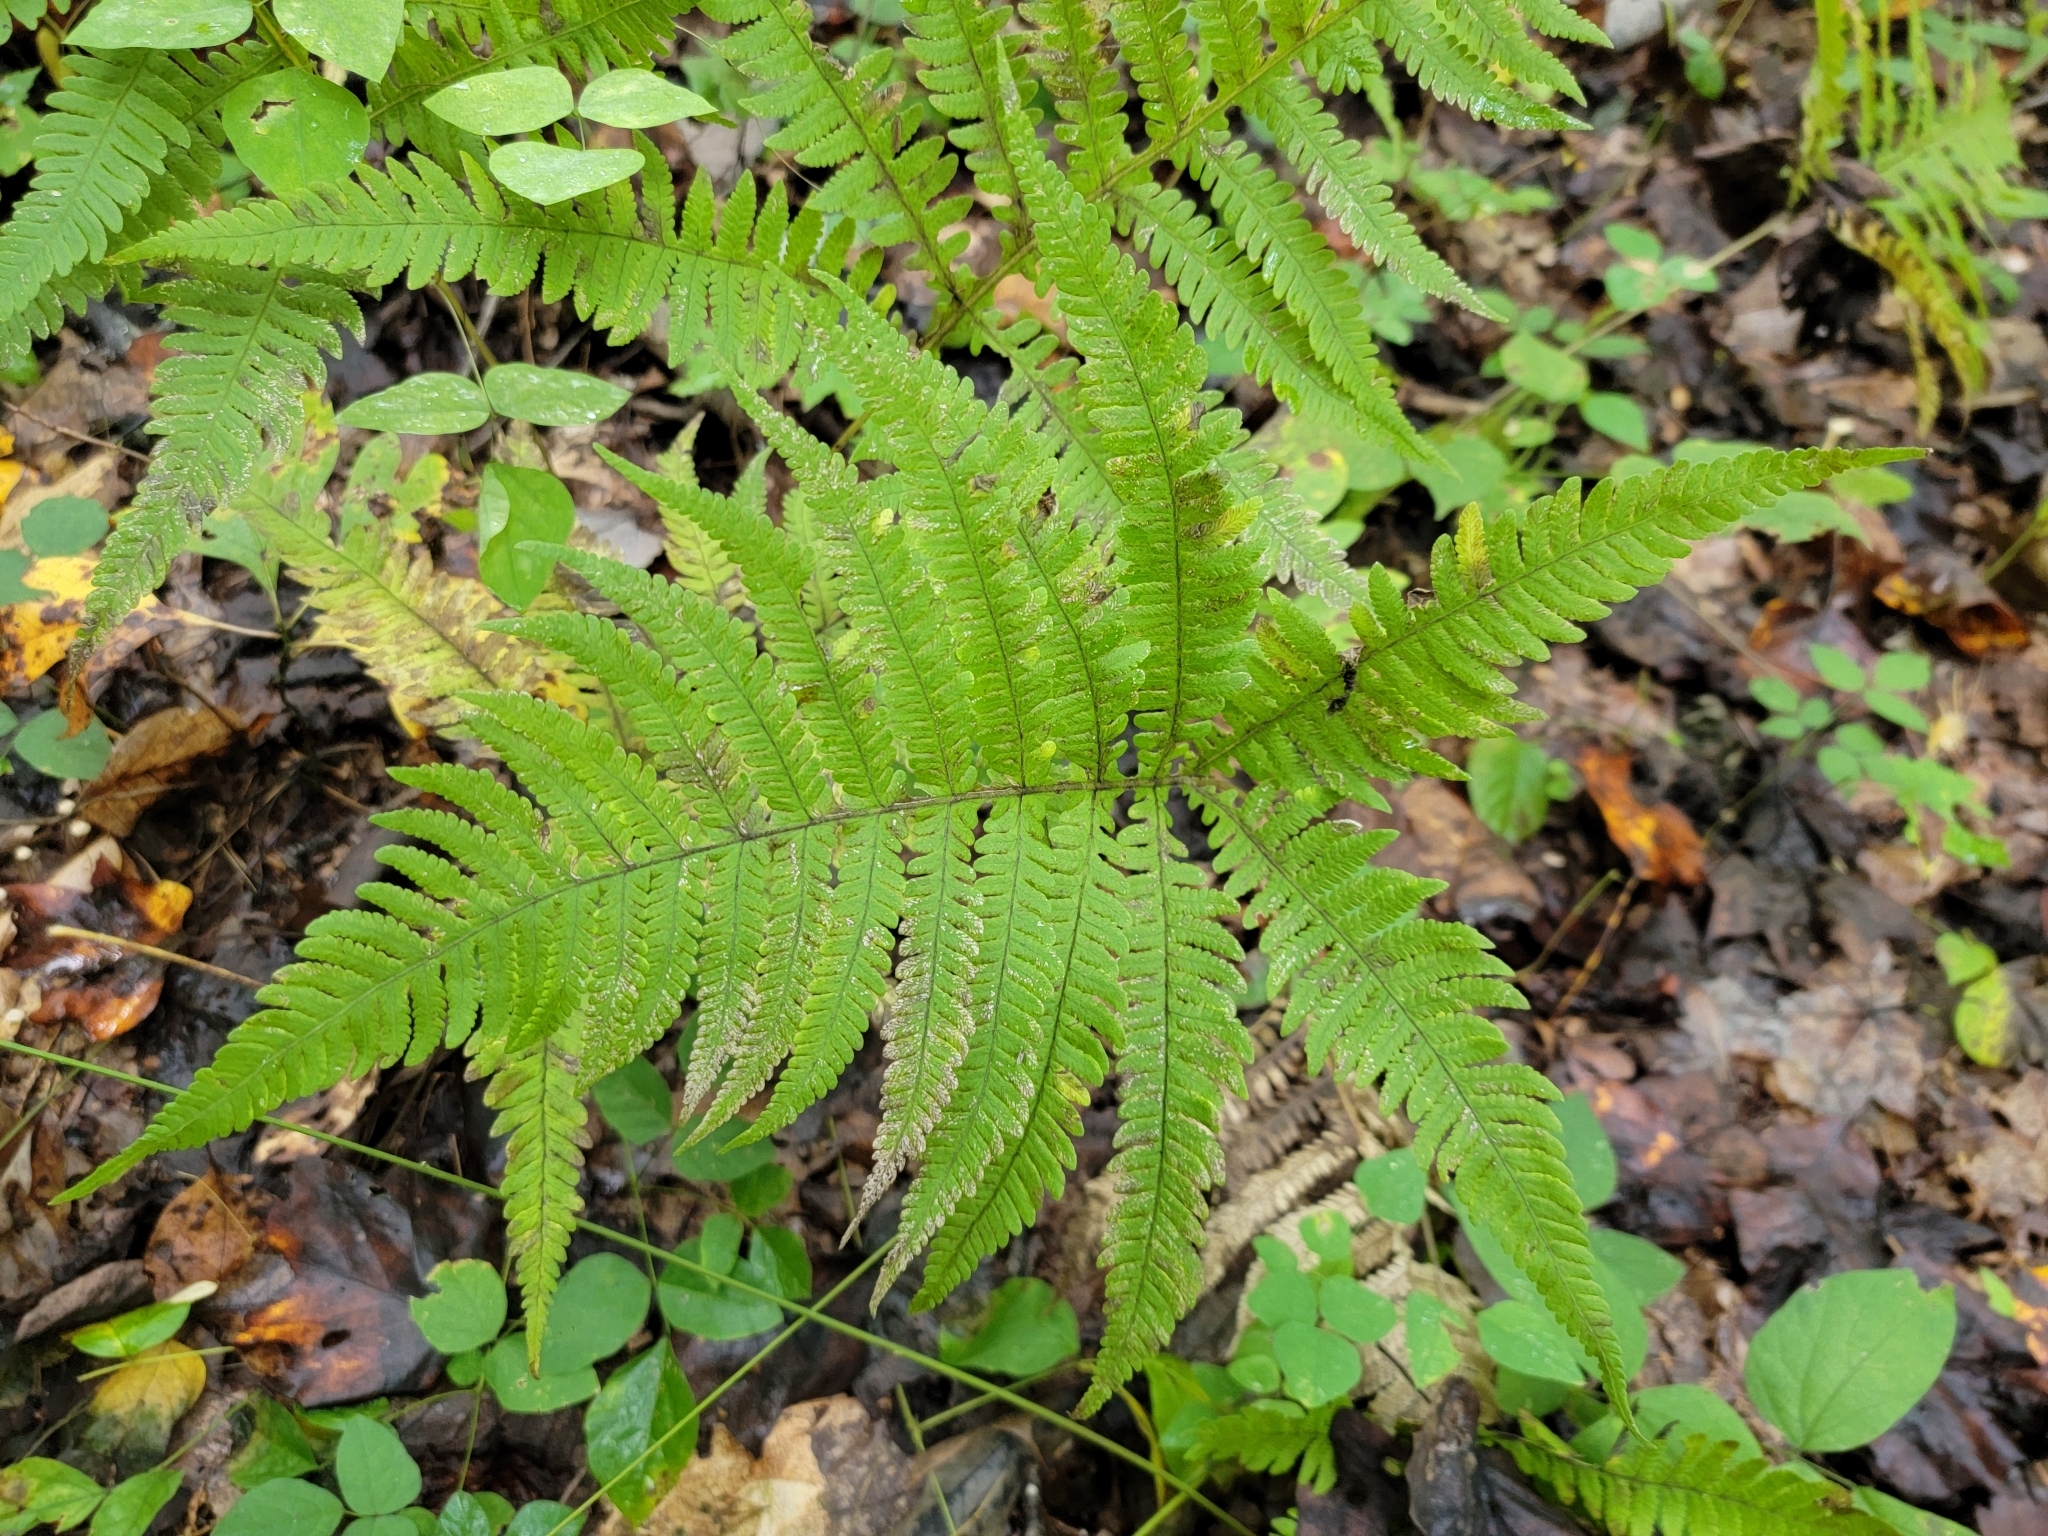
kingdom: Plantae
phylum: Tracheophyta
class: Polypodiopsida
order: Polypodiales
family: Thelypteridaceae
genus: Phegopteris
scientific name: Phegopteris hexagonoptera
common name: Broad beech fern
